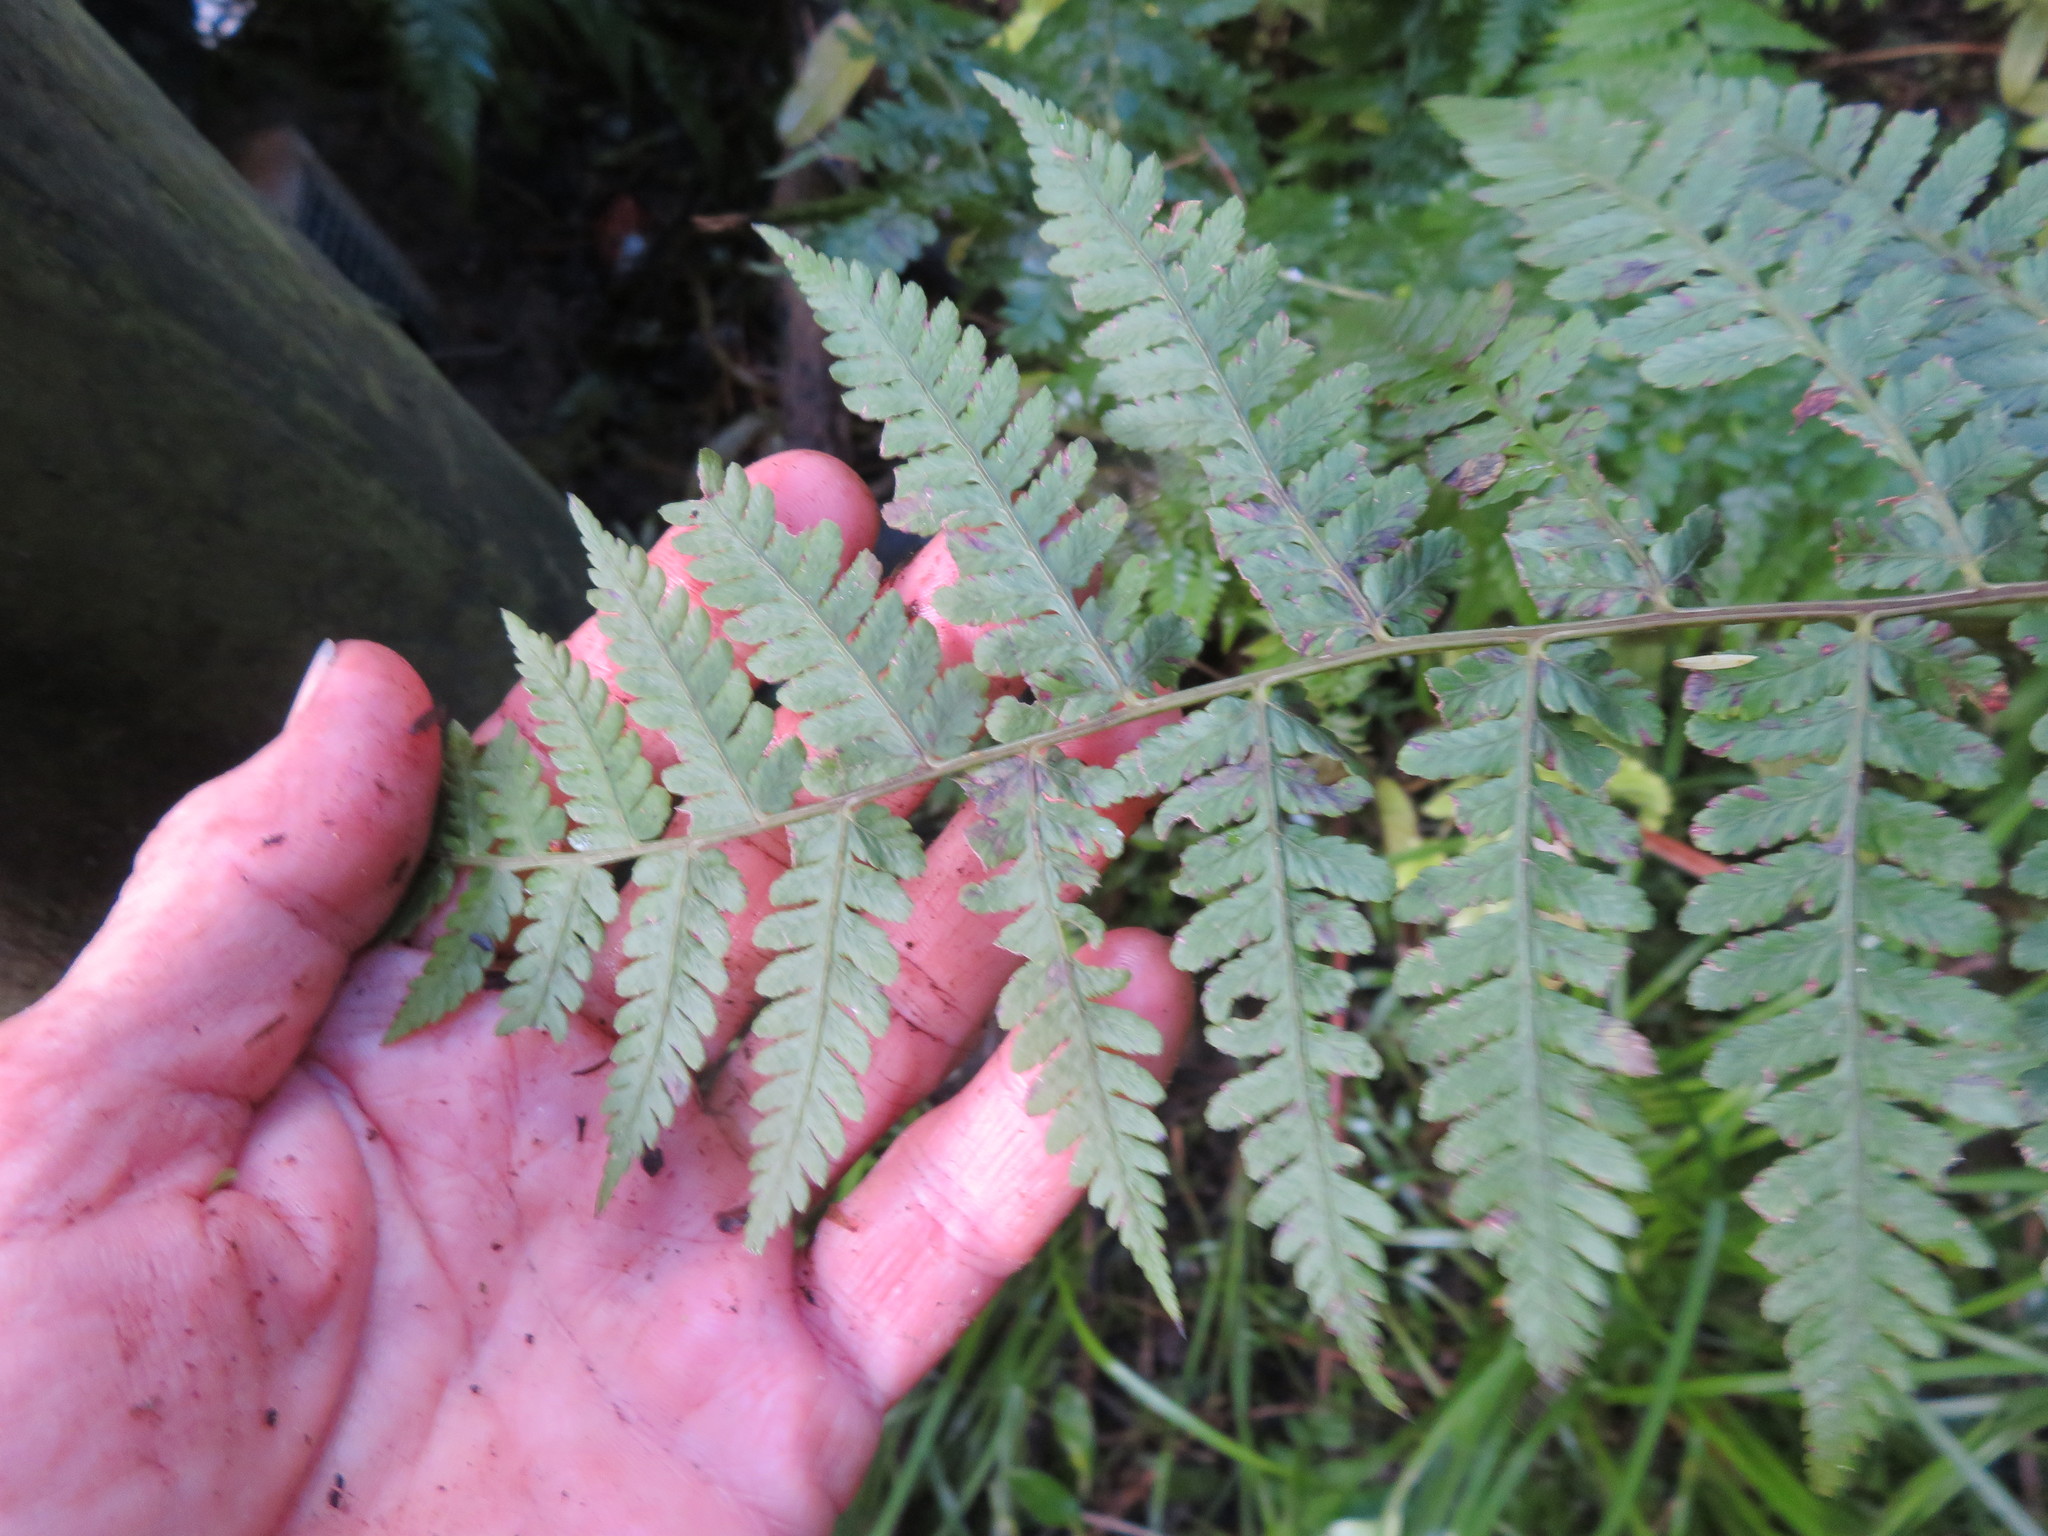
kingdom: Plantae
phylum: Tracheophyta
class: Polypodiopsida
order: Polypodiales
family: Athyriaceae
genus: Diplazium
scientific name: Diplazium australe
